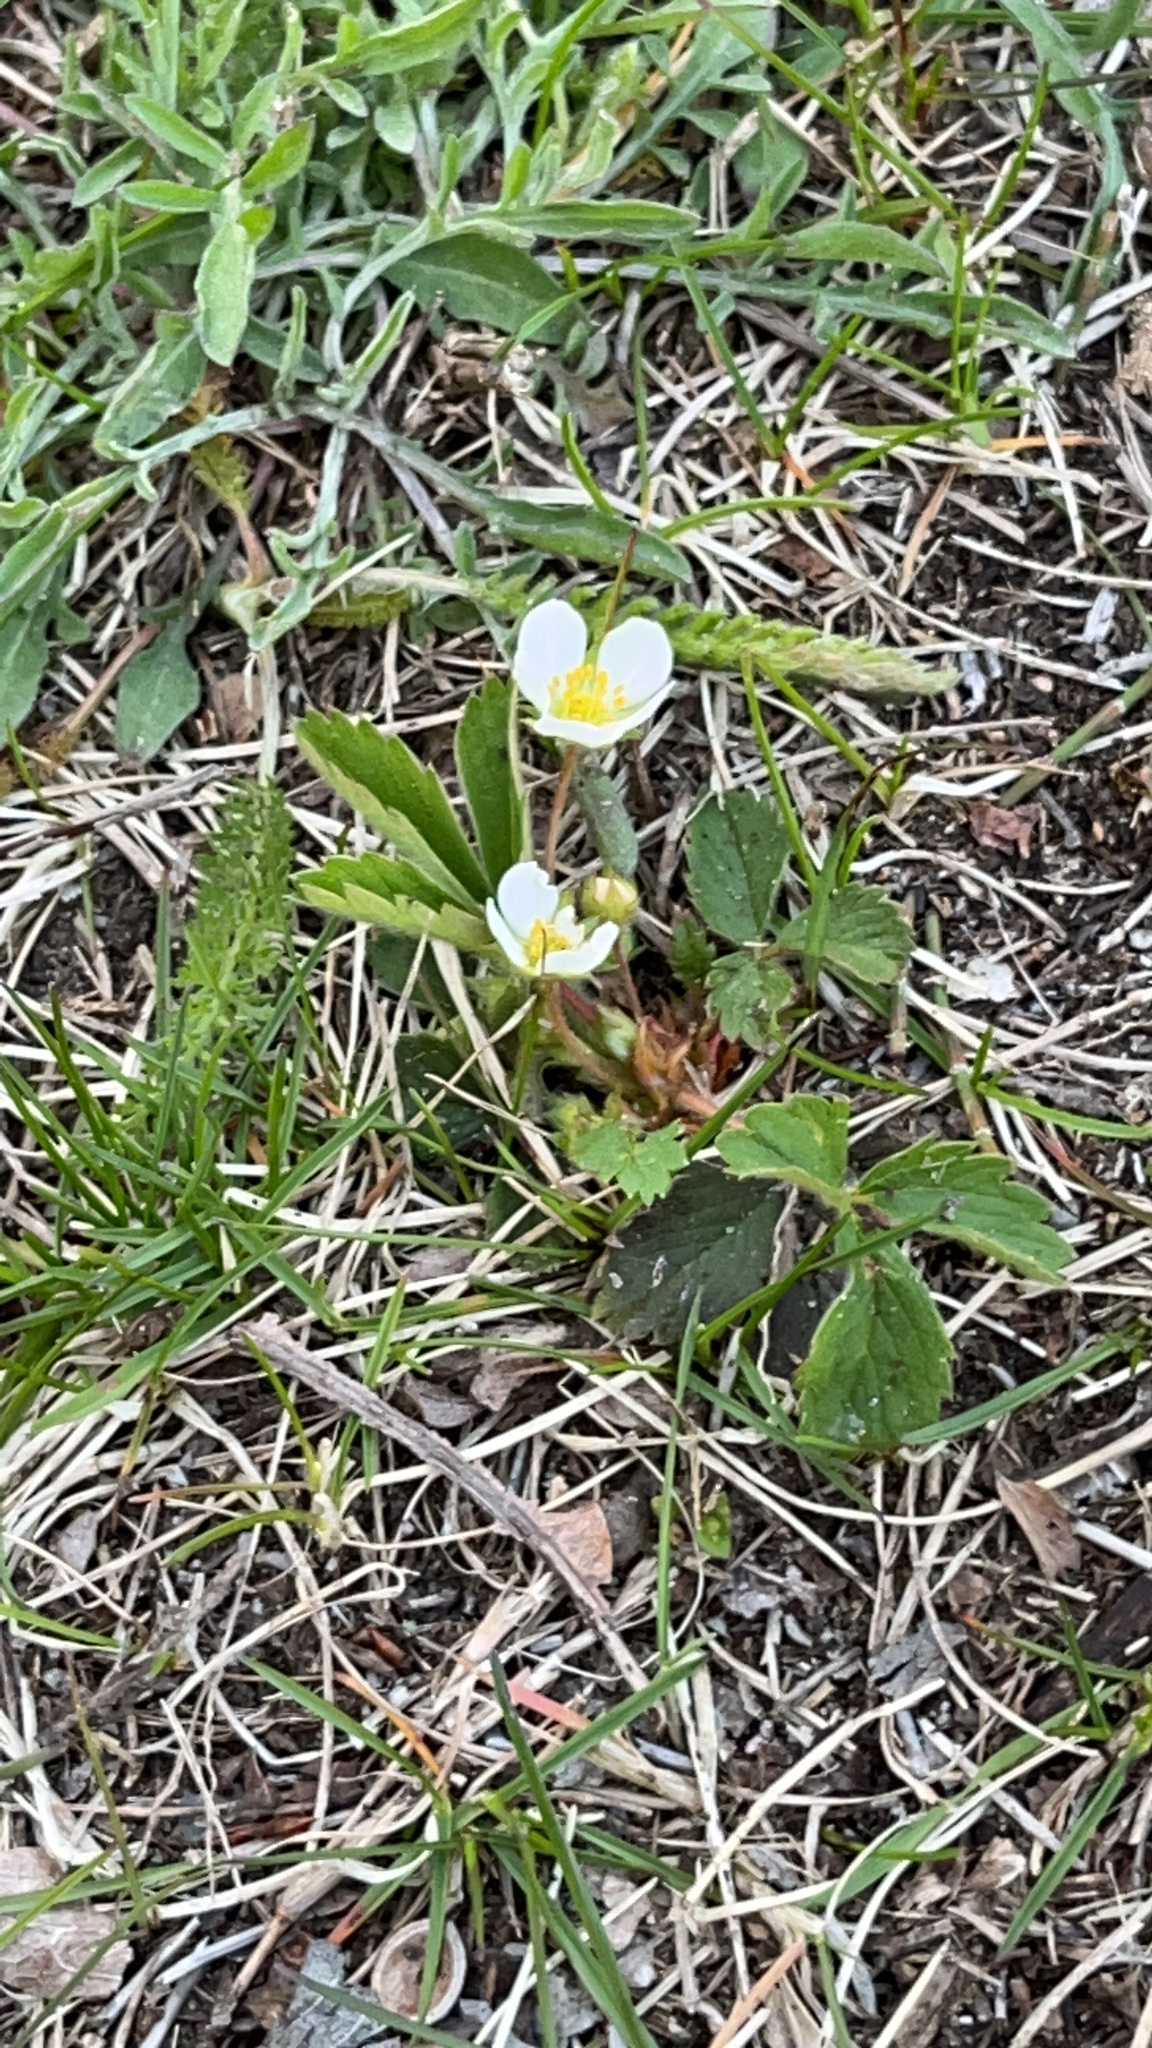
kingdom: Plantae
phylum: Tracheophyta
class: Magnoliopsida
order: Rosales
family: Rosaceae
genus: Fragaria
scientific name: Fragaria virginiana
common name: Thickleaved wild strawberry
